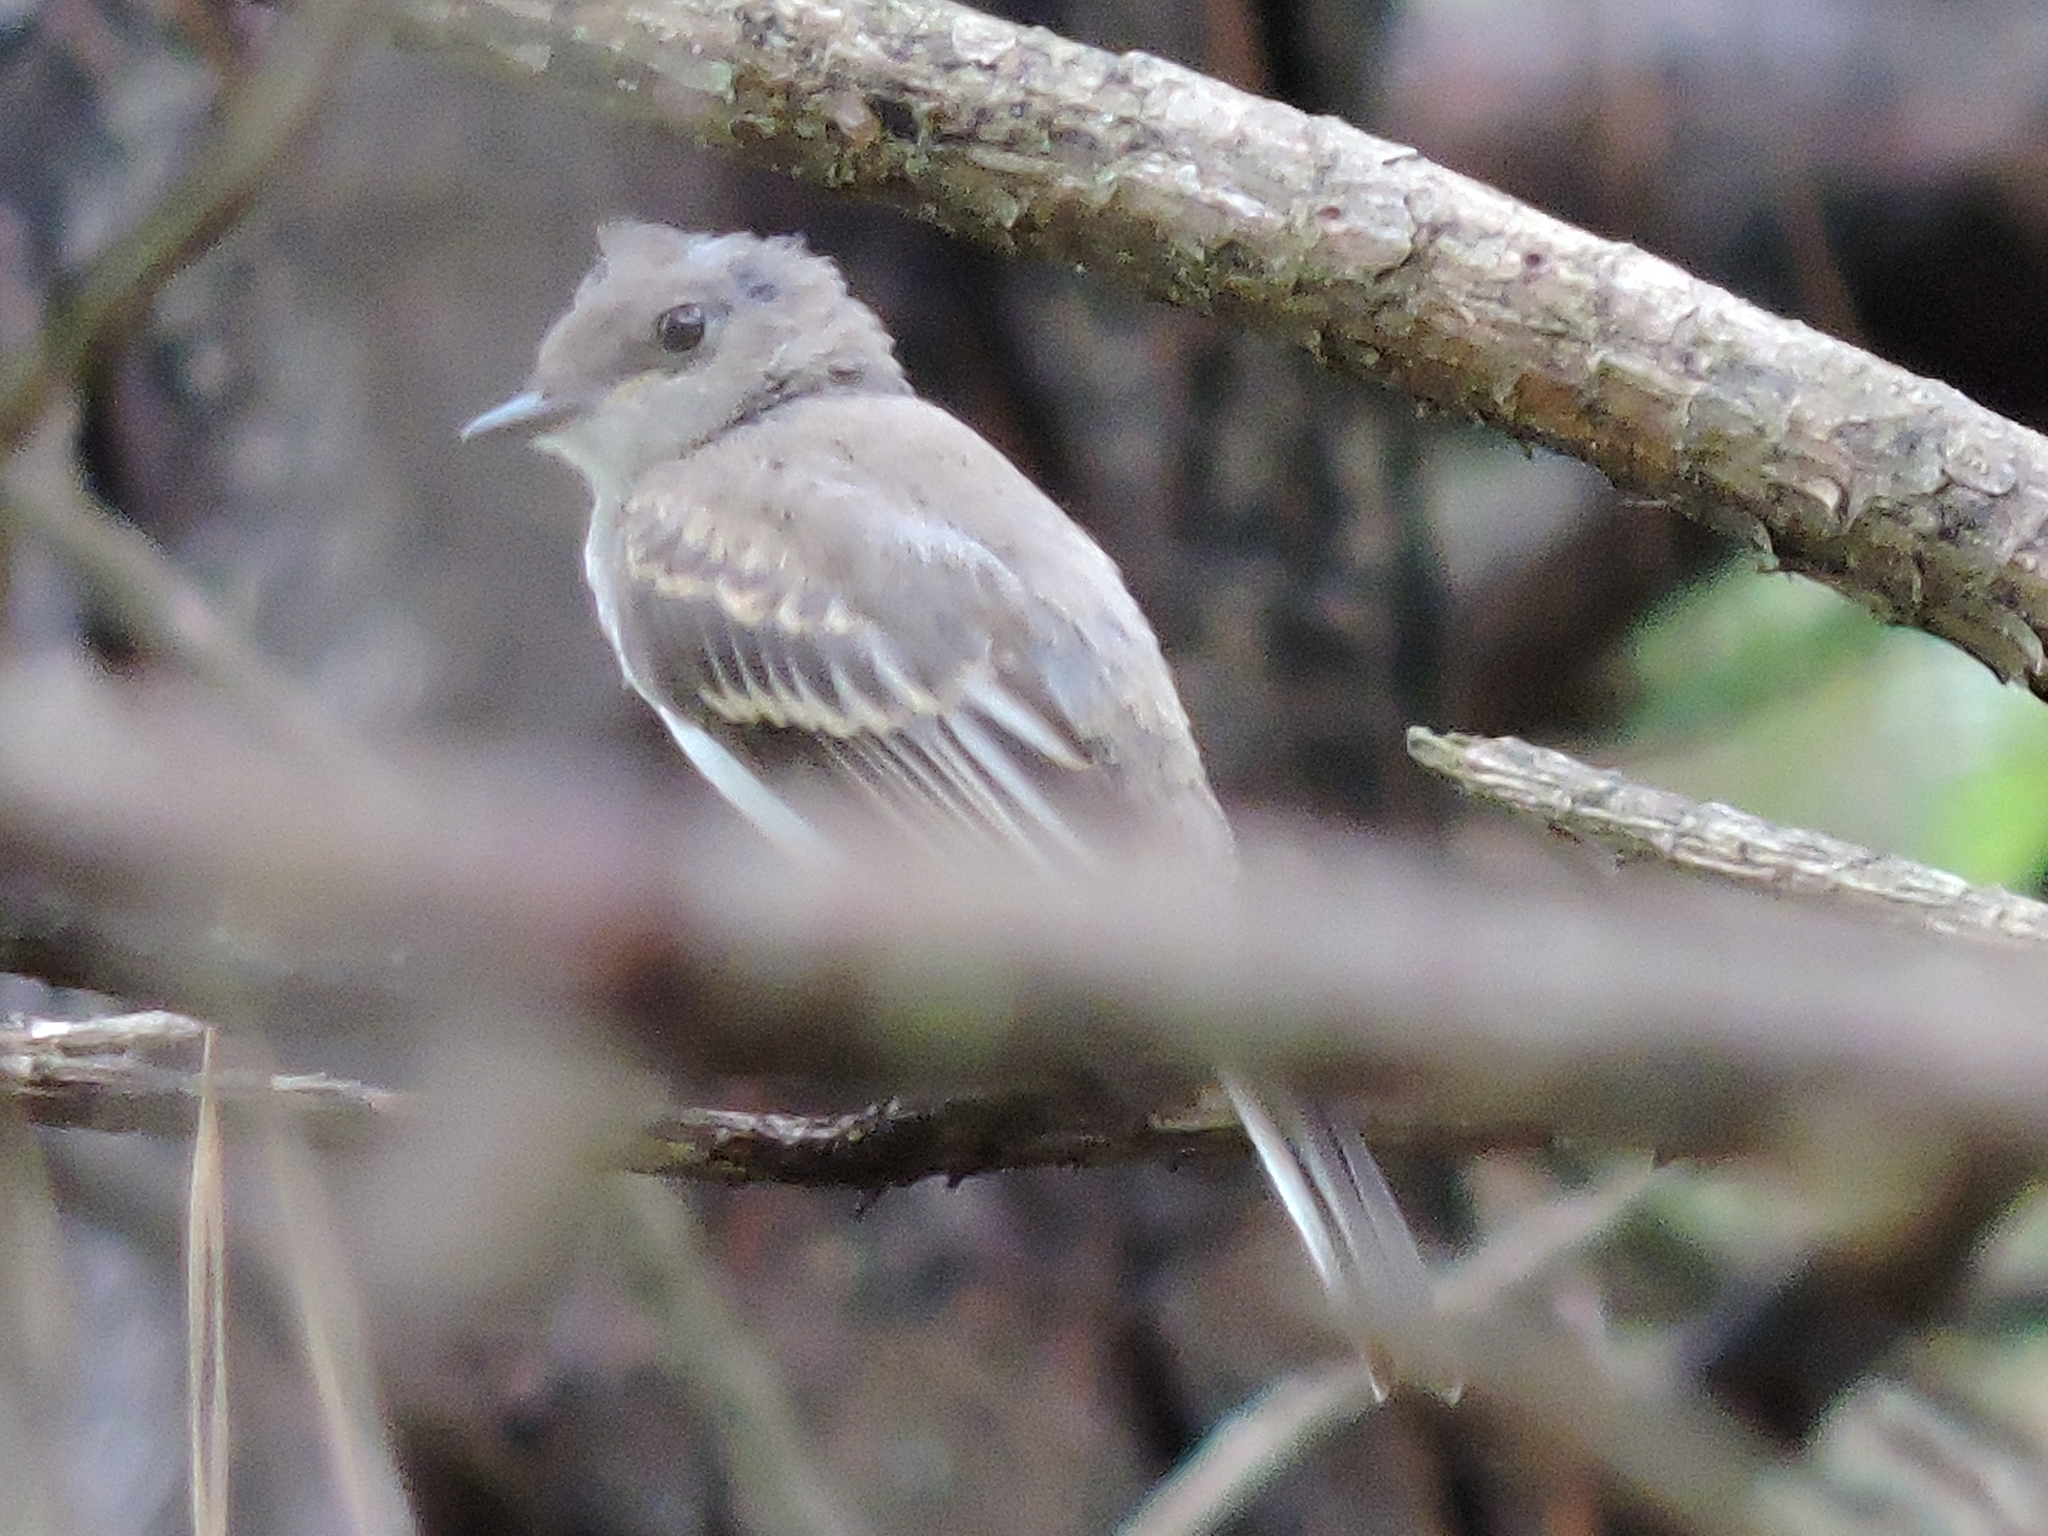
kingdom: Animalia
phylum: Chordata
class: Aves
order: Passeriformes
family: Tyrannidae
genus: Sayornis
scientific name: Sayornis phoebe
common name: Eastern phoebe
